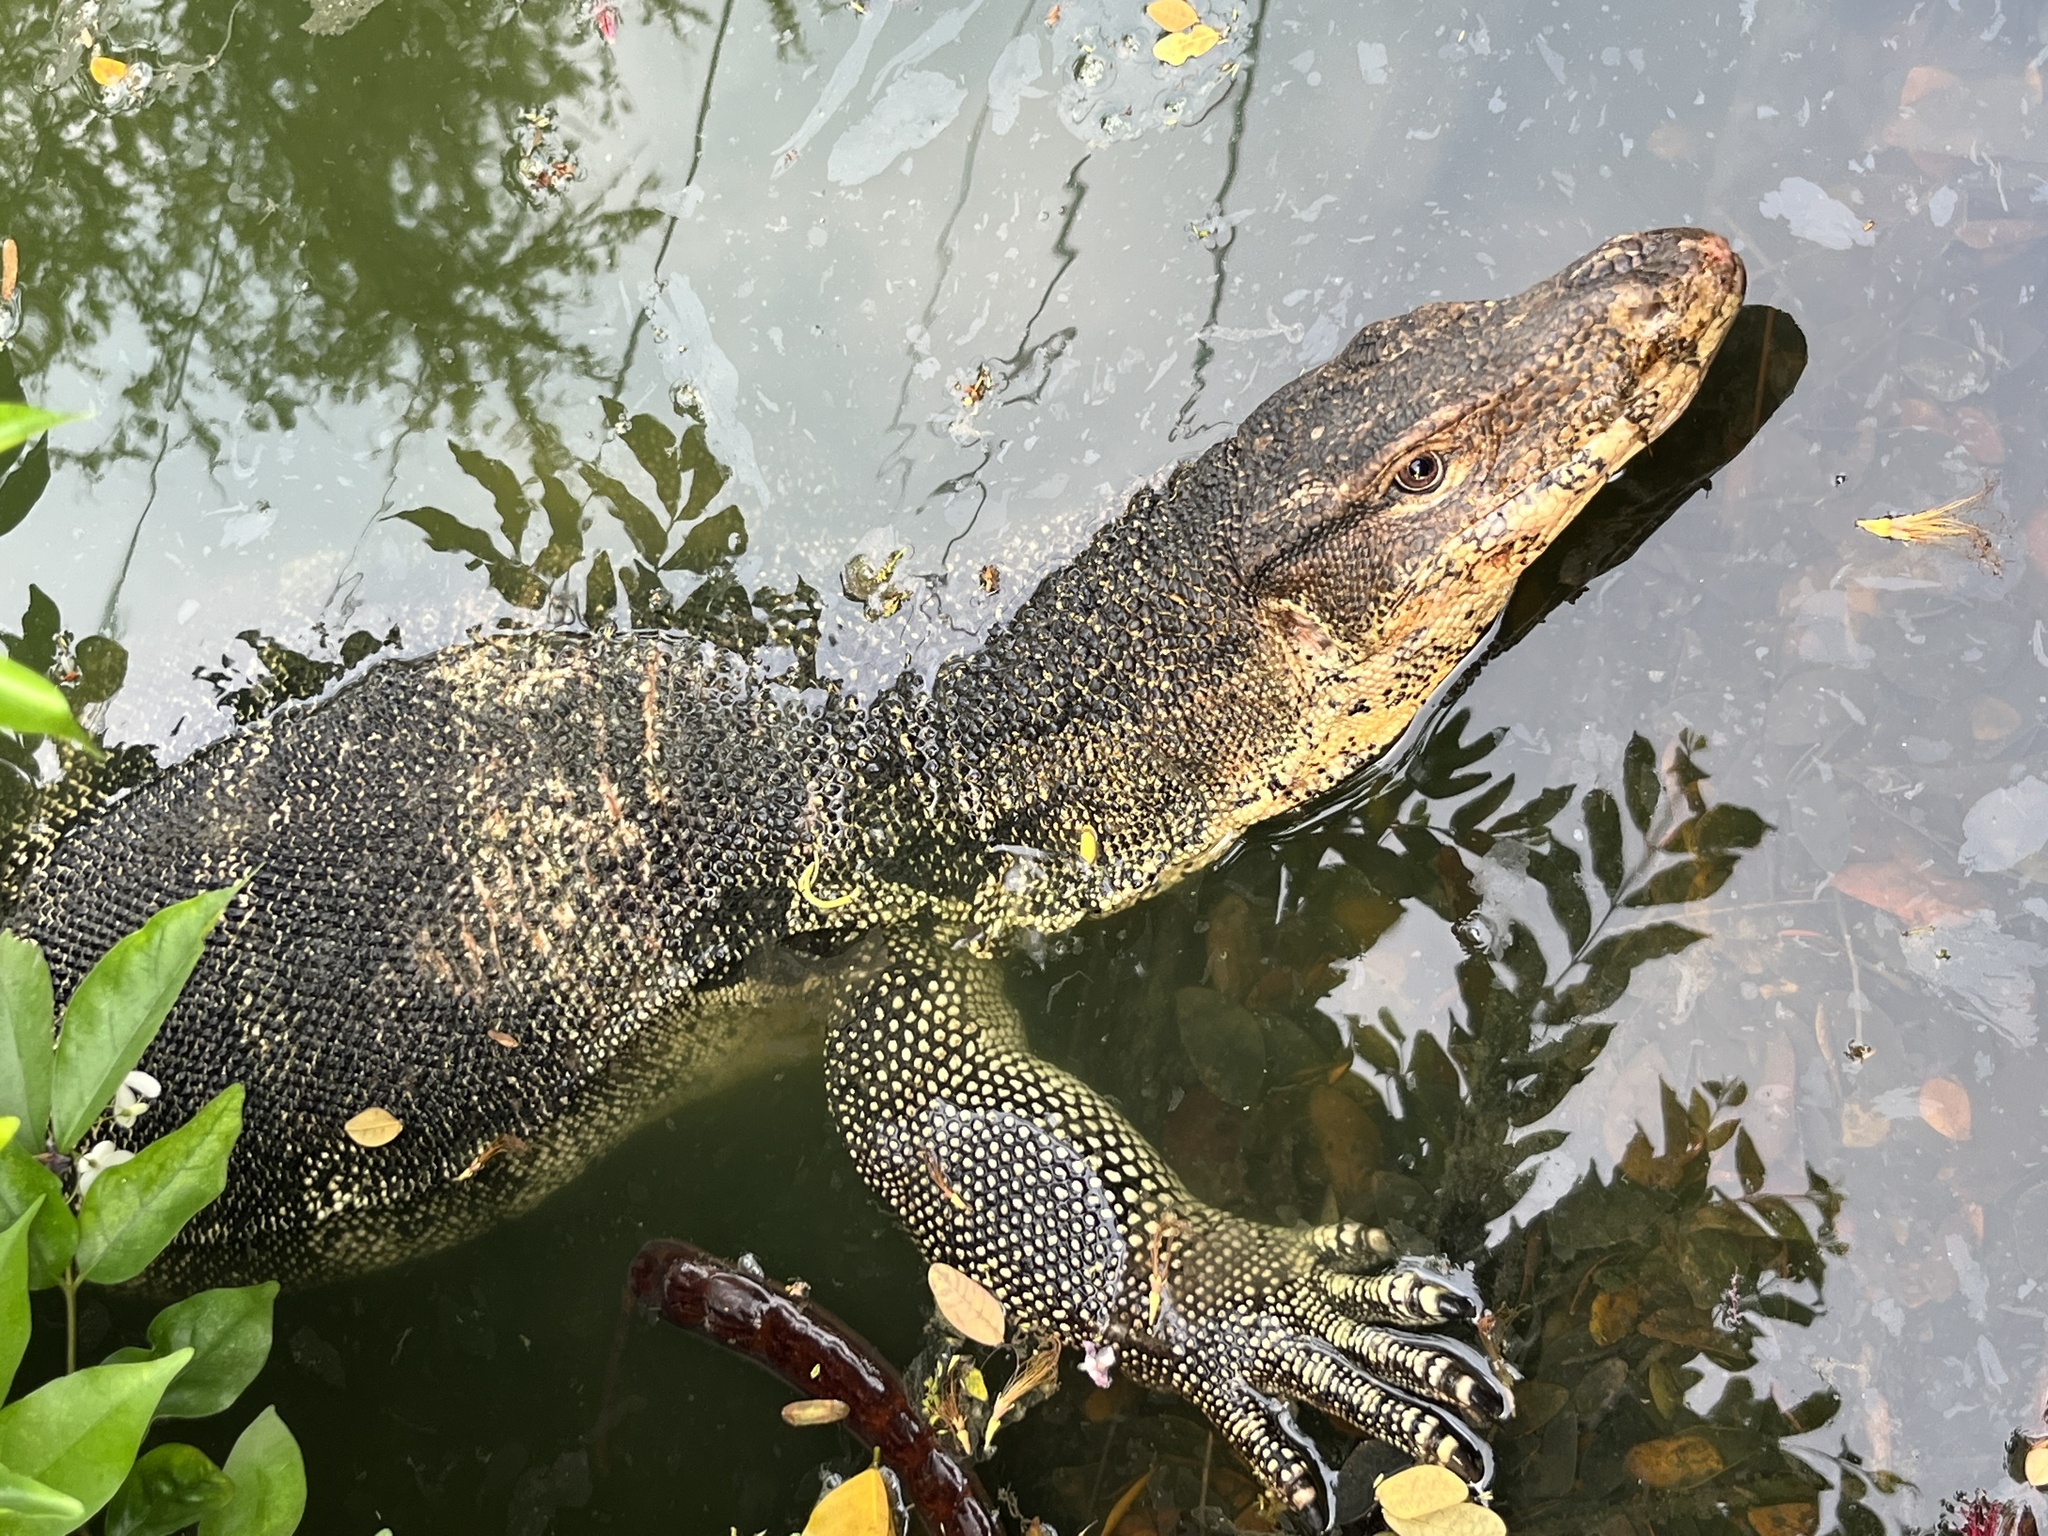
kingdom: Animalia
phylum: Chordata
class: Squamata
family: Varanidae
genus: Varanus
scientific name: Varanus salvator
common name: Common water monitor
